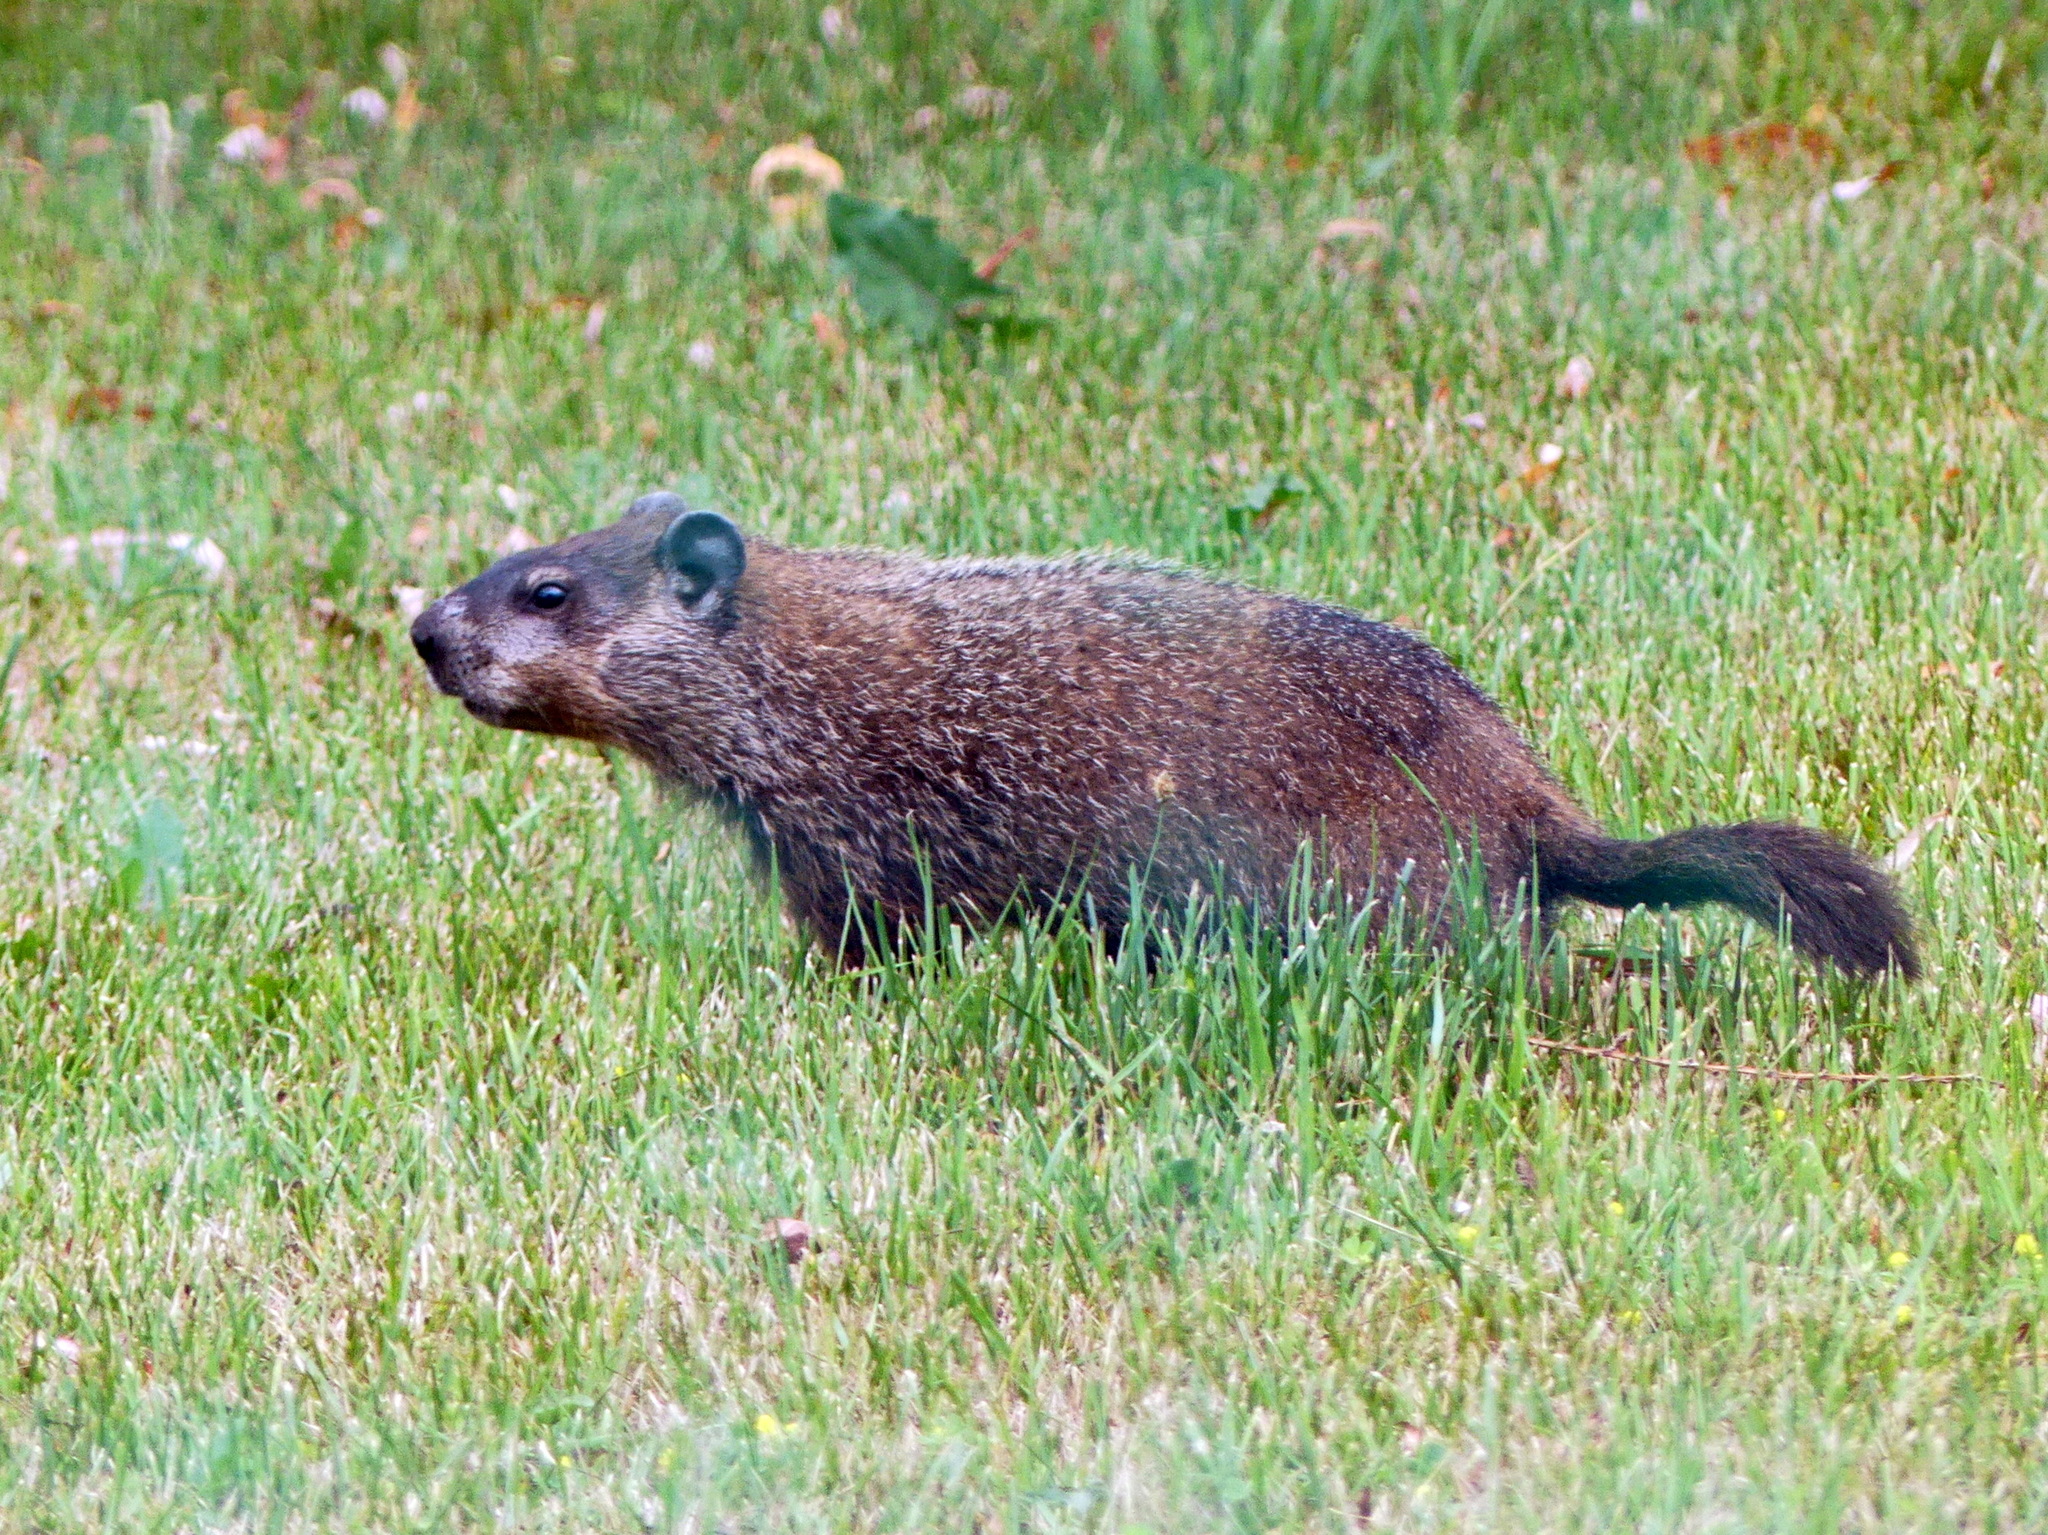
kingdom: Animalia
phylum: Chordata
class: Mammalia
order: Rodentia
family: Sciuridae
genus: Marmota
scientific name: Marmota monax
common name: Groundhog
